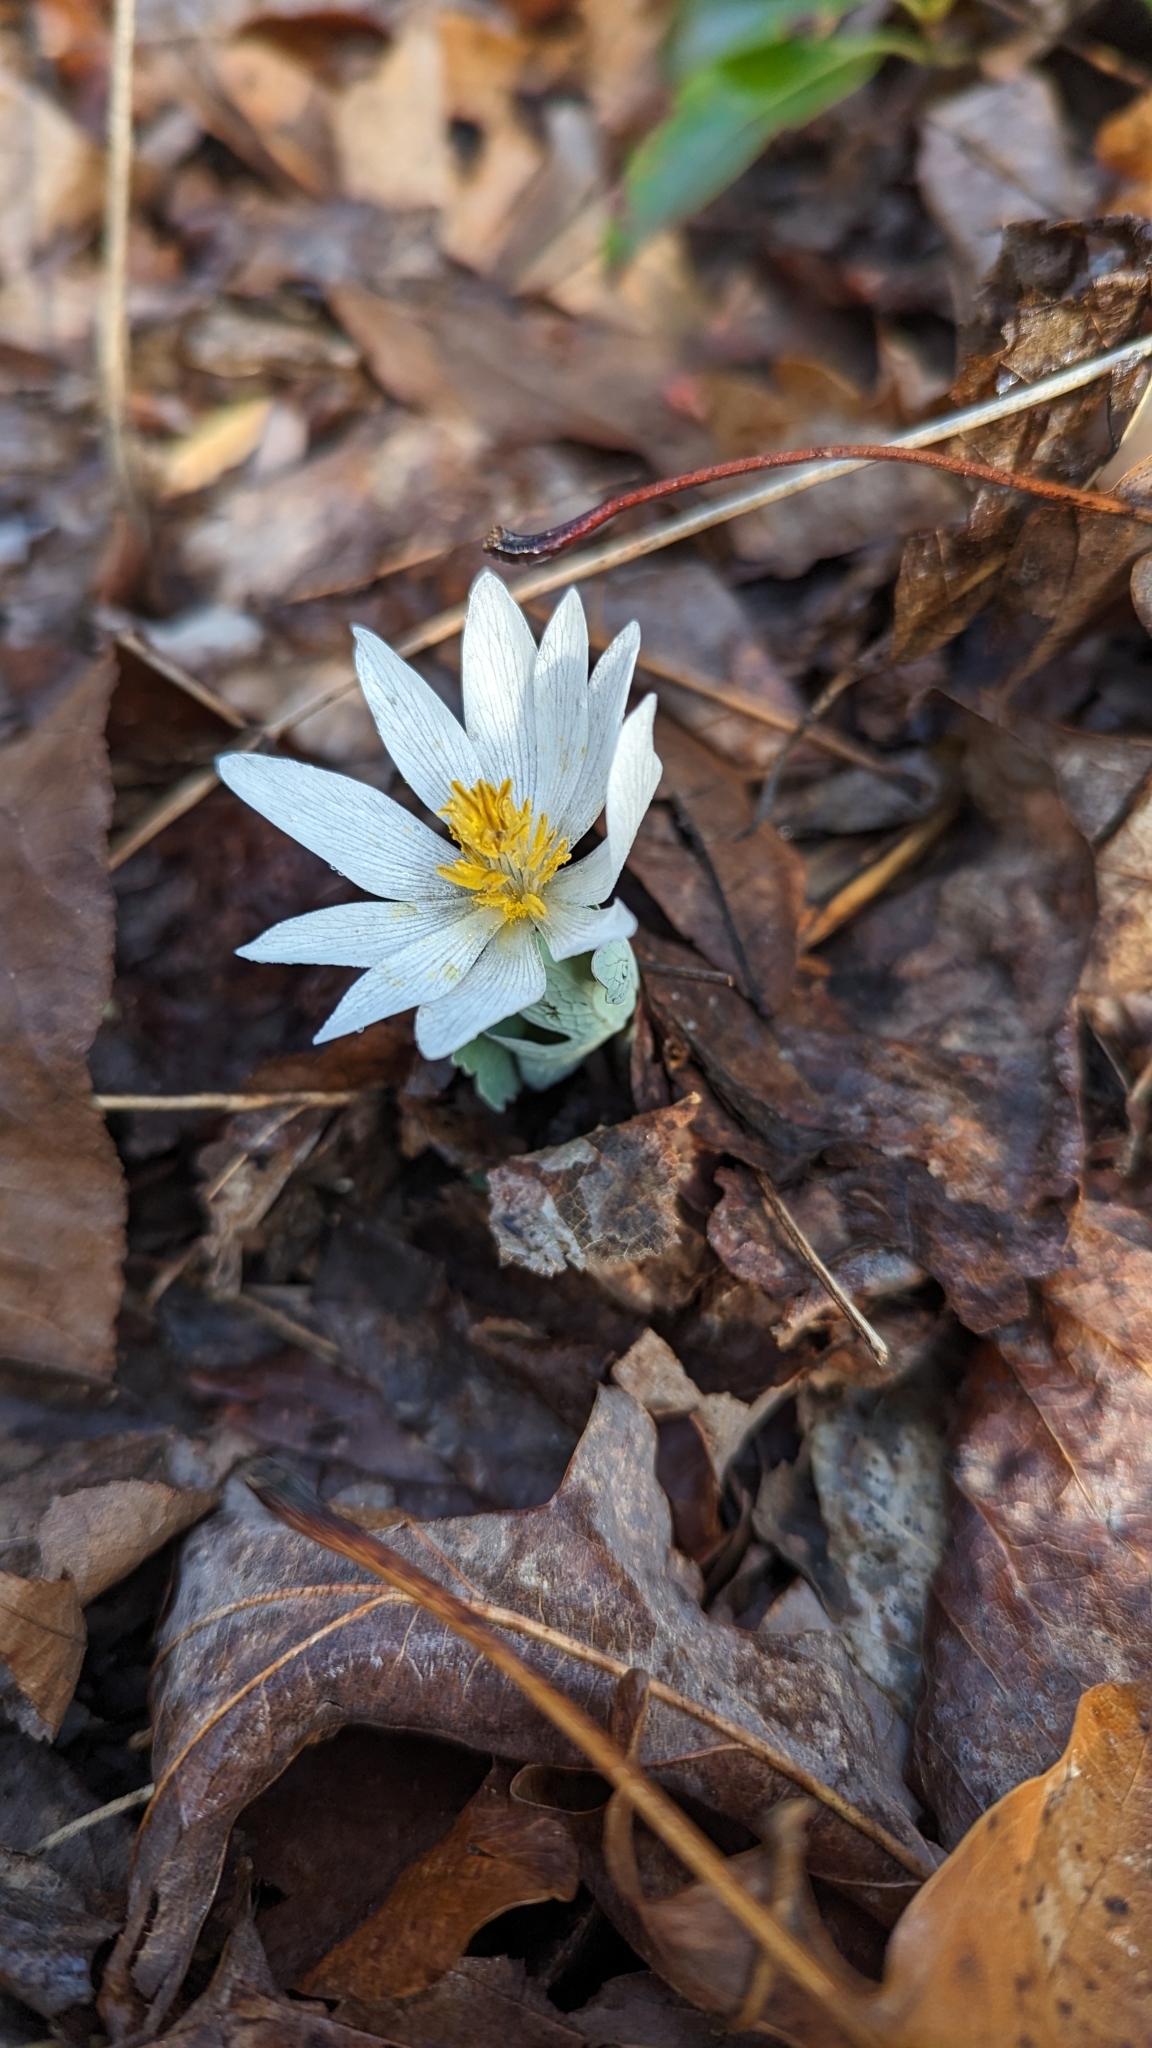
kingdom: Plantae
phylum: Tracheophyta
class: Magnoliopsida
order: Ranunculales
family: Papaveraceae
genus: Sanguinaria
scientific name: Sanguinaria canadensis
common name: Bloodroot
